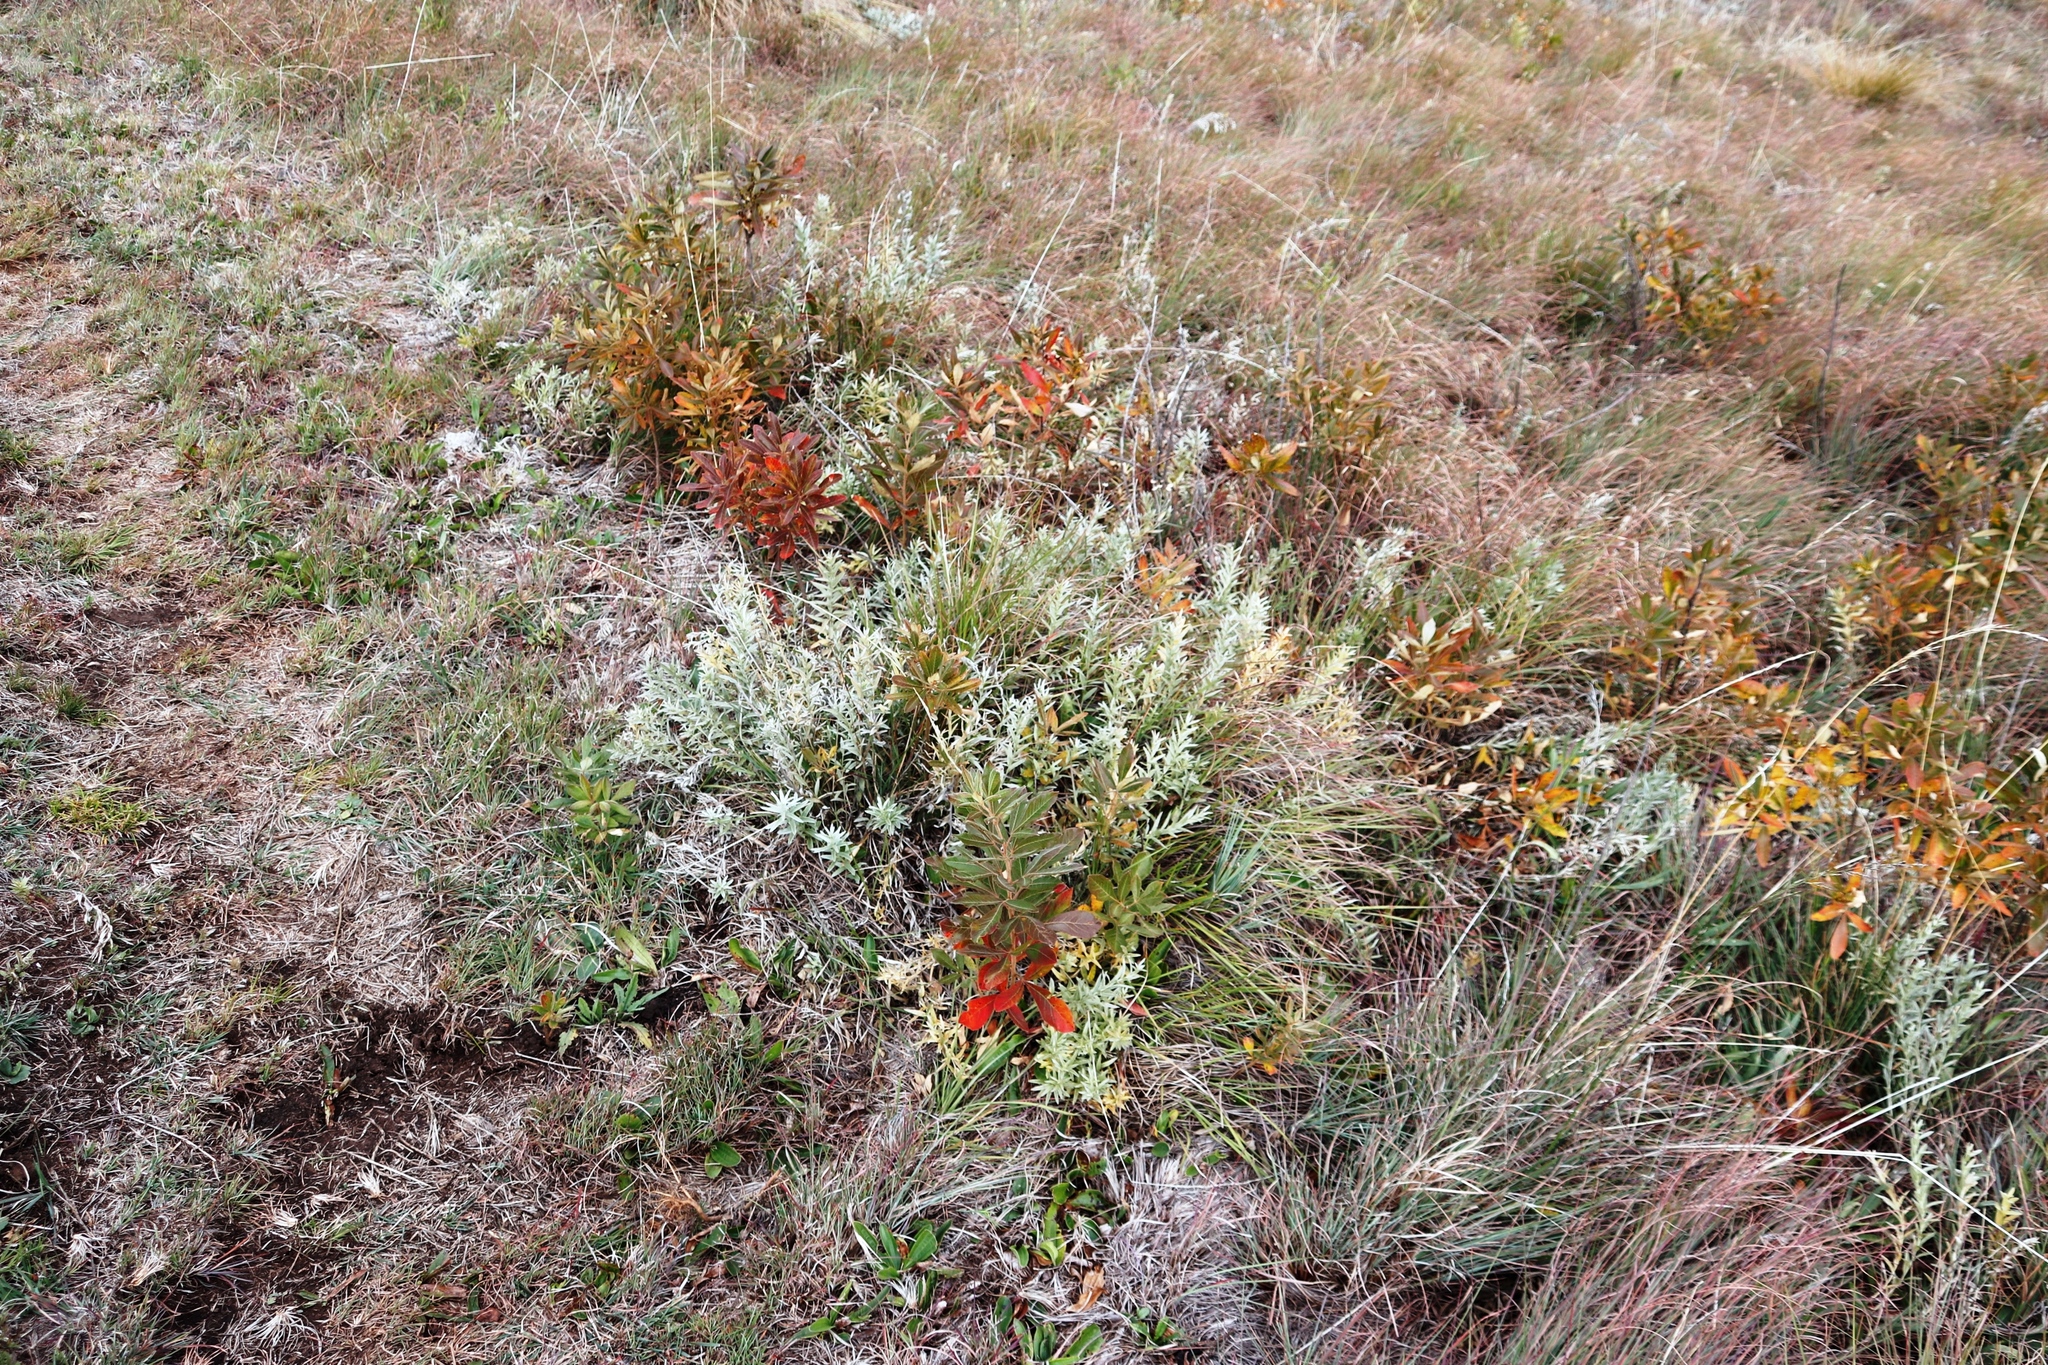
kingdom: Plantae
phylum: Tracheophyta
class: Magnoliopsida
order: Sapindales
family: Anacardiaceae
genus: Searsia
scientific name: Searsia discolor
